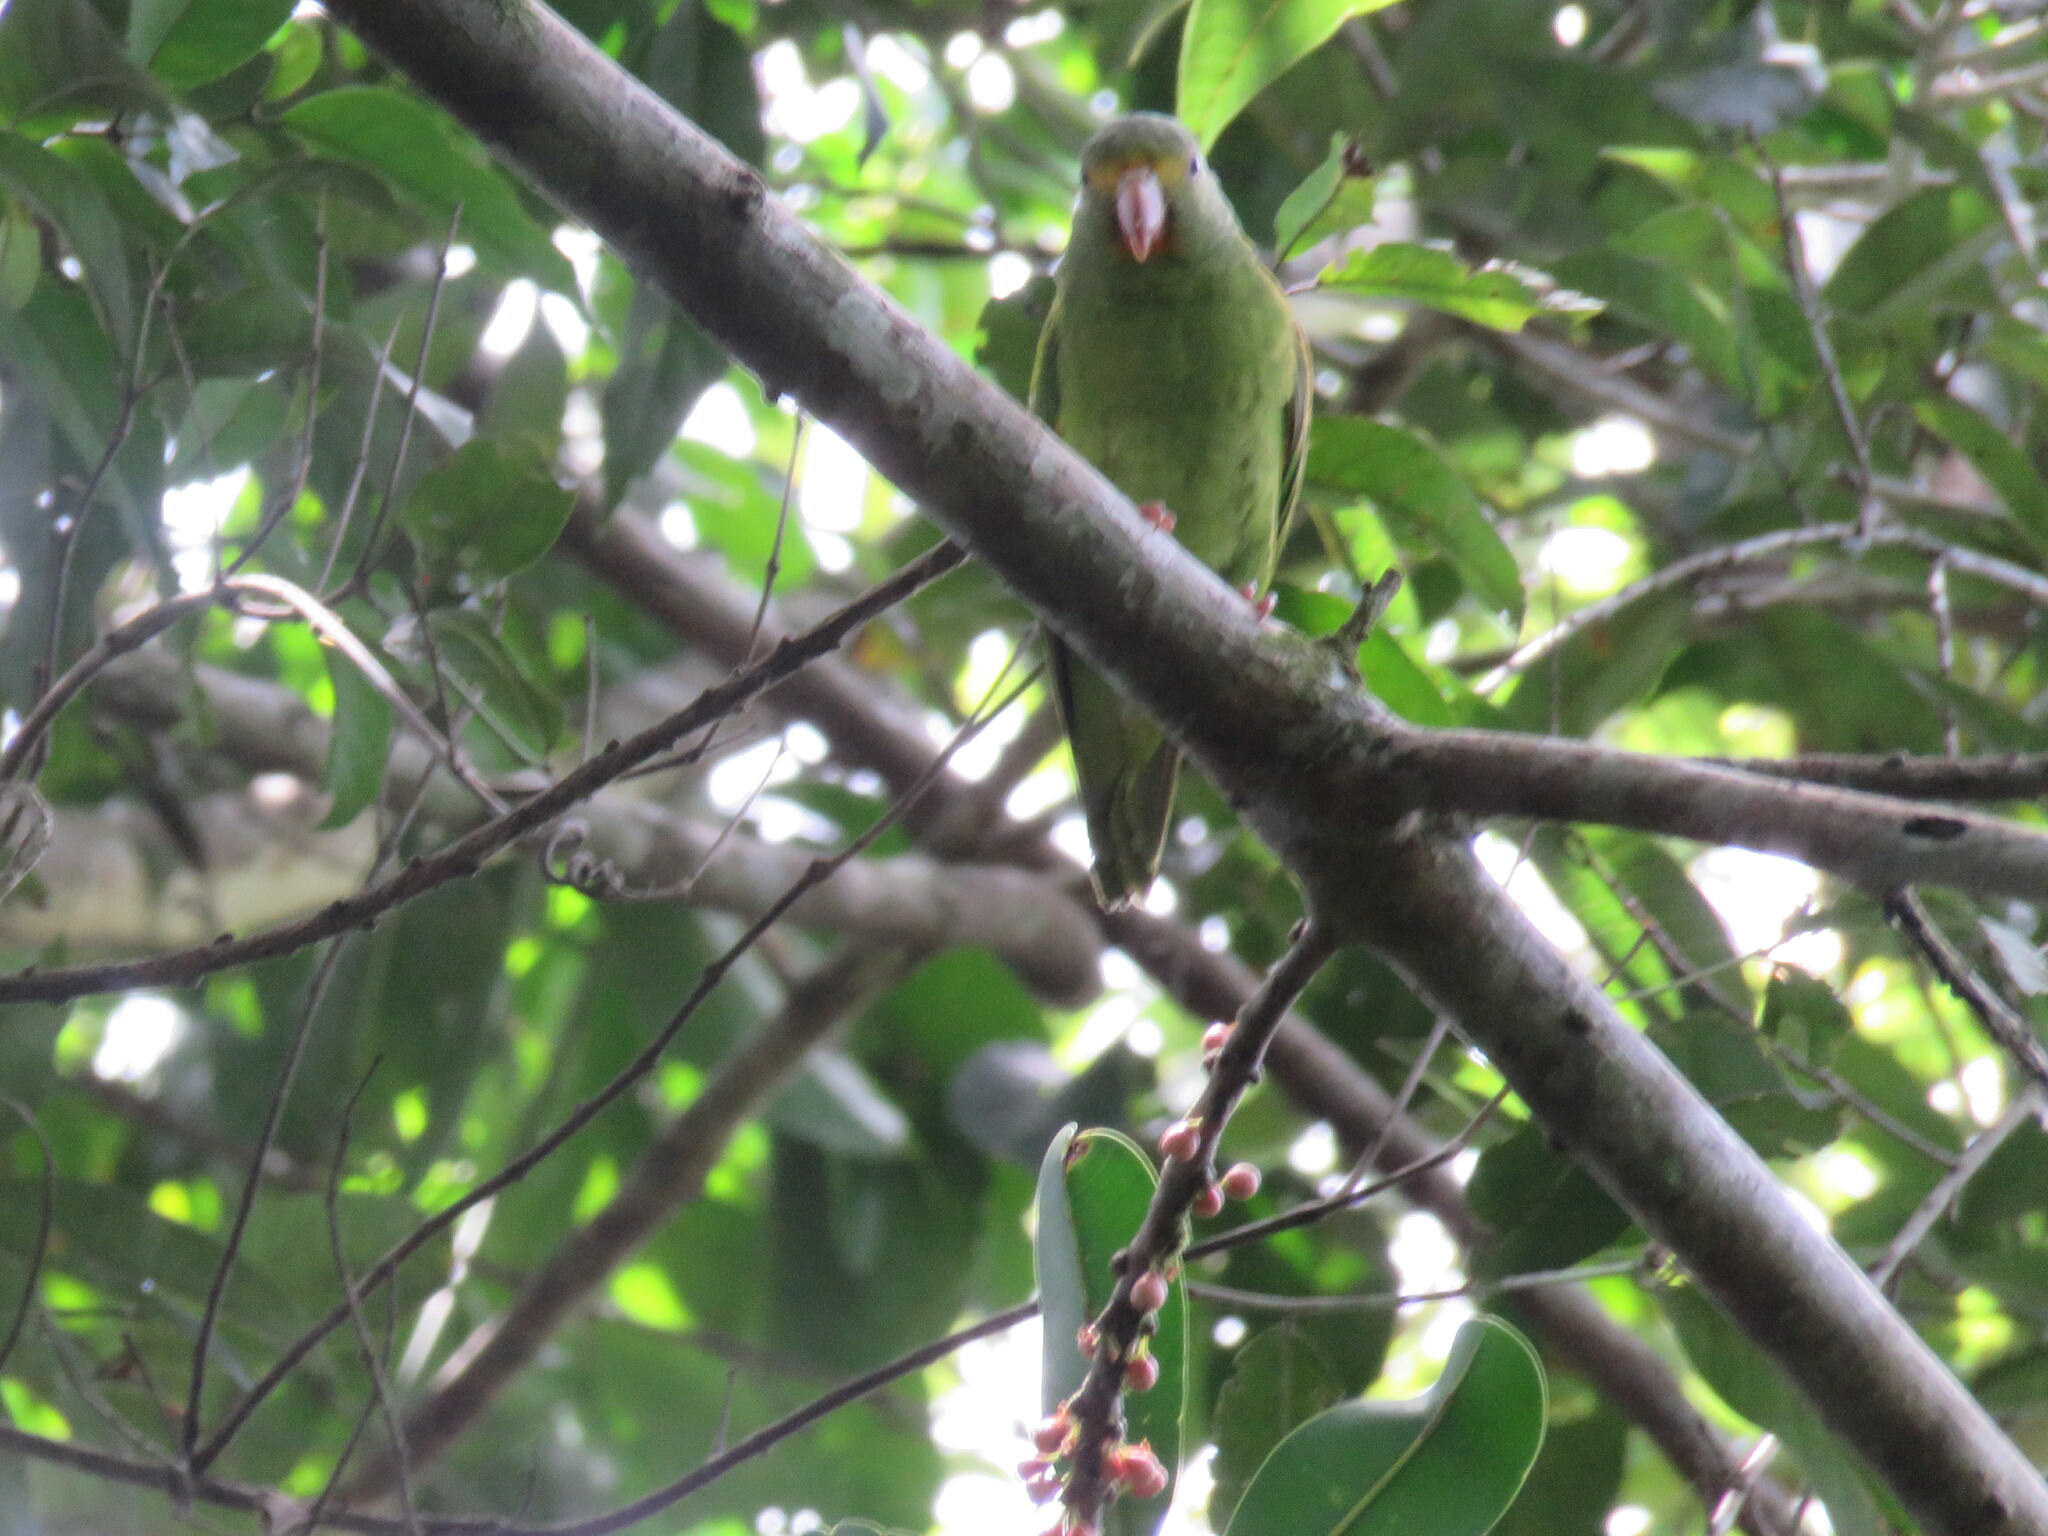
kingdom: Animalia
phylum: Chordata
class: Aves
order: Psittaciformes
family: Psittacidae
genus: Brotogeris
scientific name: Brotogeris cyanoptera
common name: Cobalt-winged parakeet
